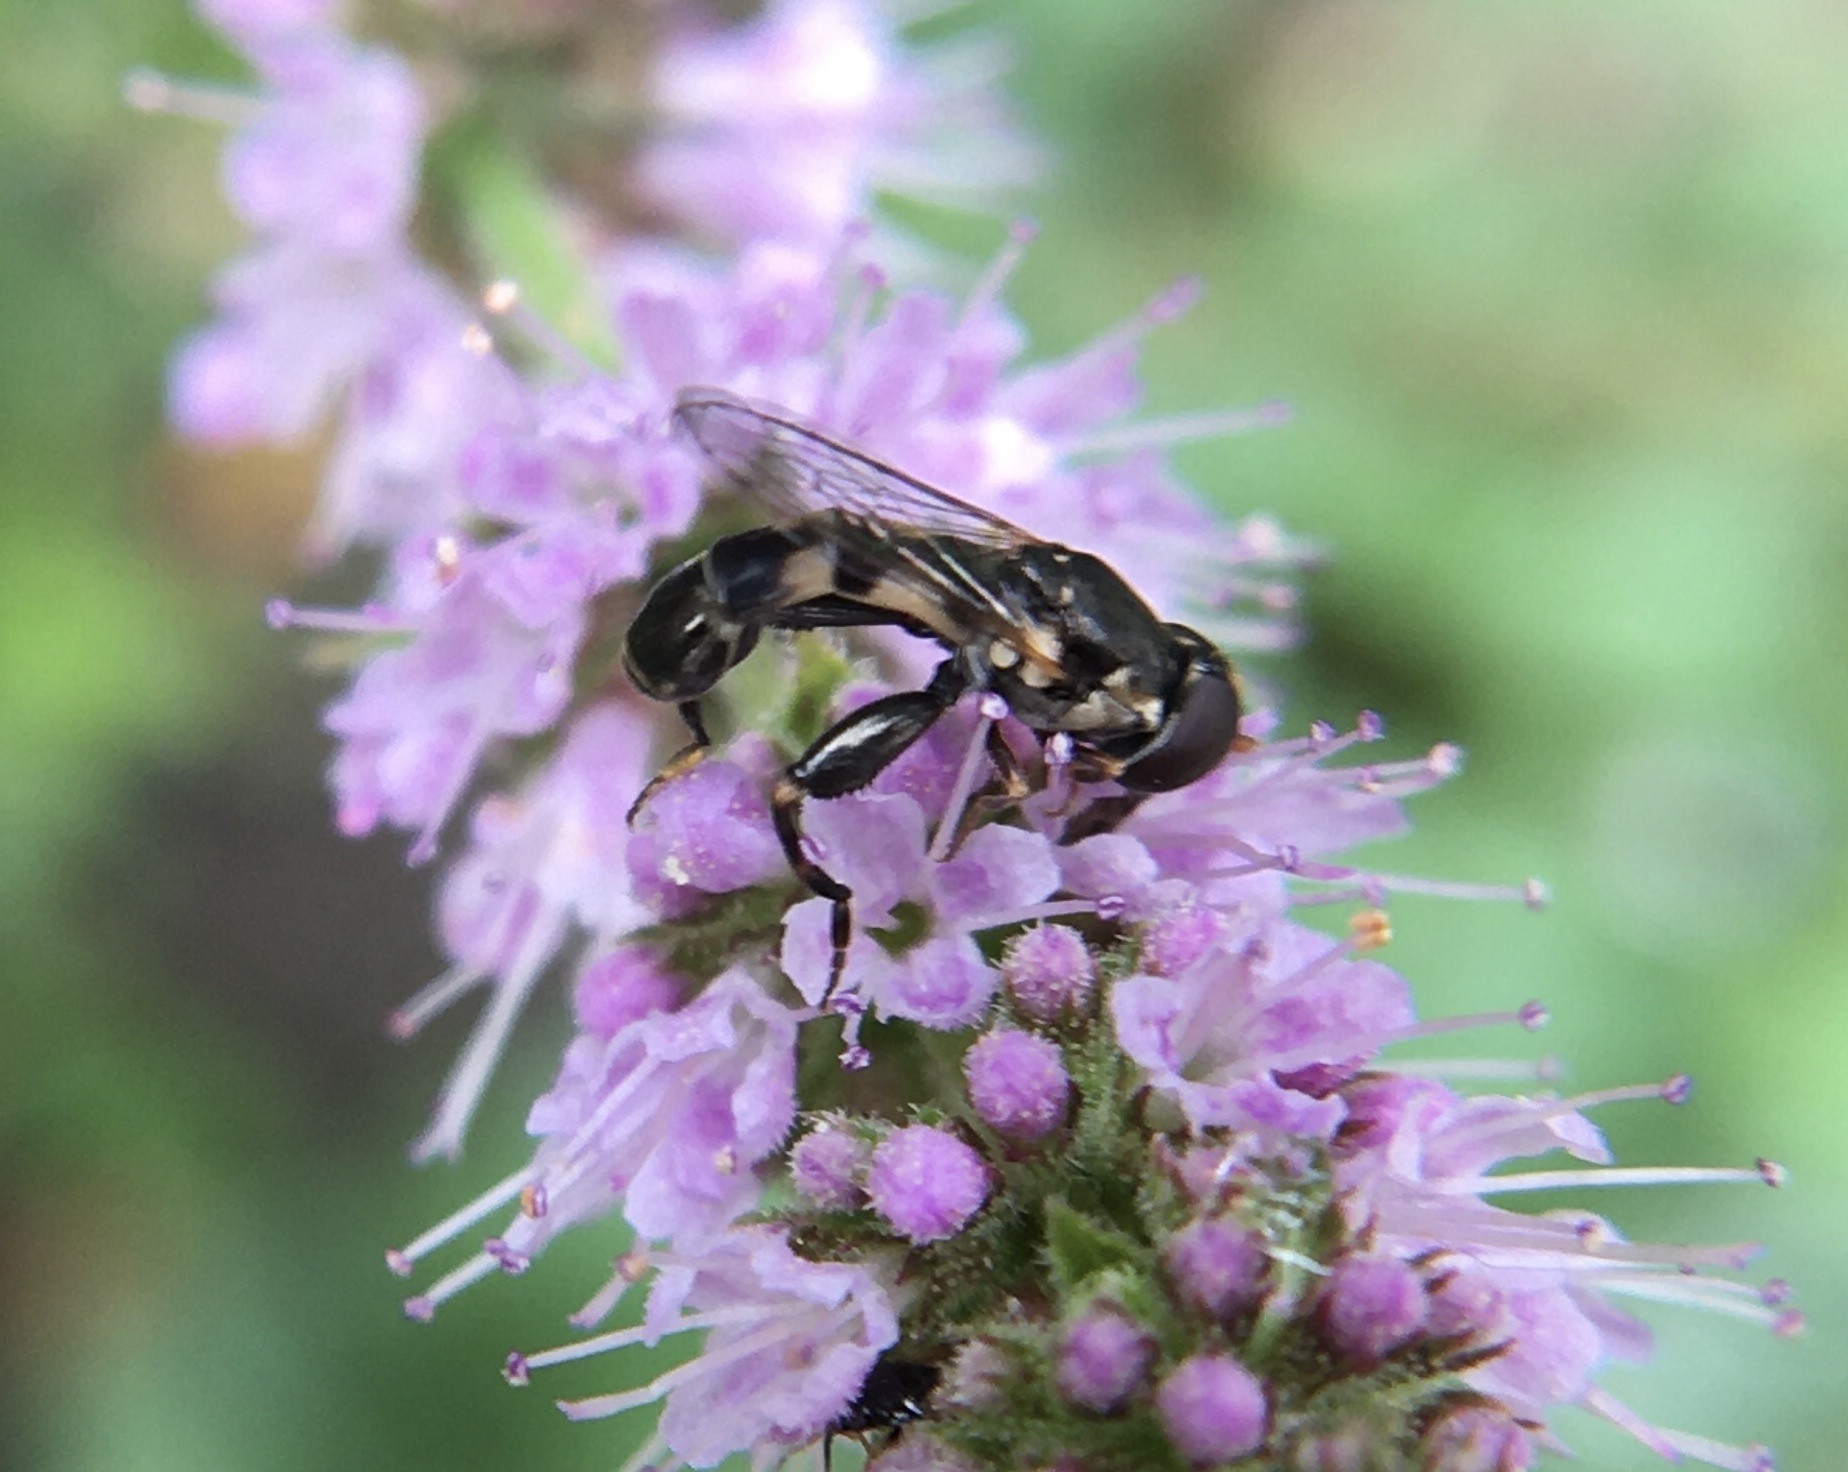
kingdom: Animalia
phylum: Arthropoda
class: Insecta
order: Diptera
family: Syrphidae
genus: Syritta
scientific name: Syritta pipiens
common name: Hover fly
